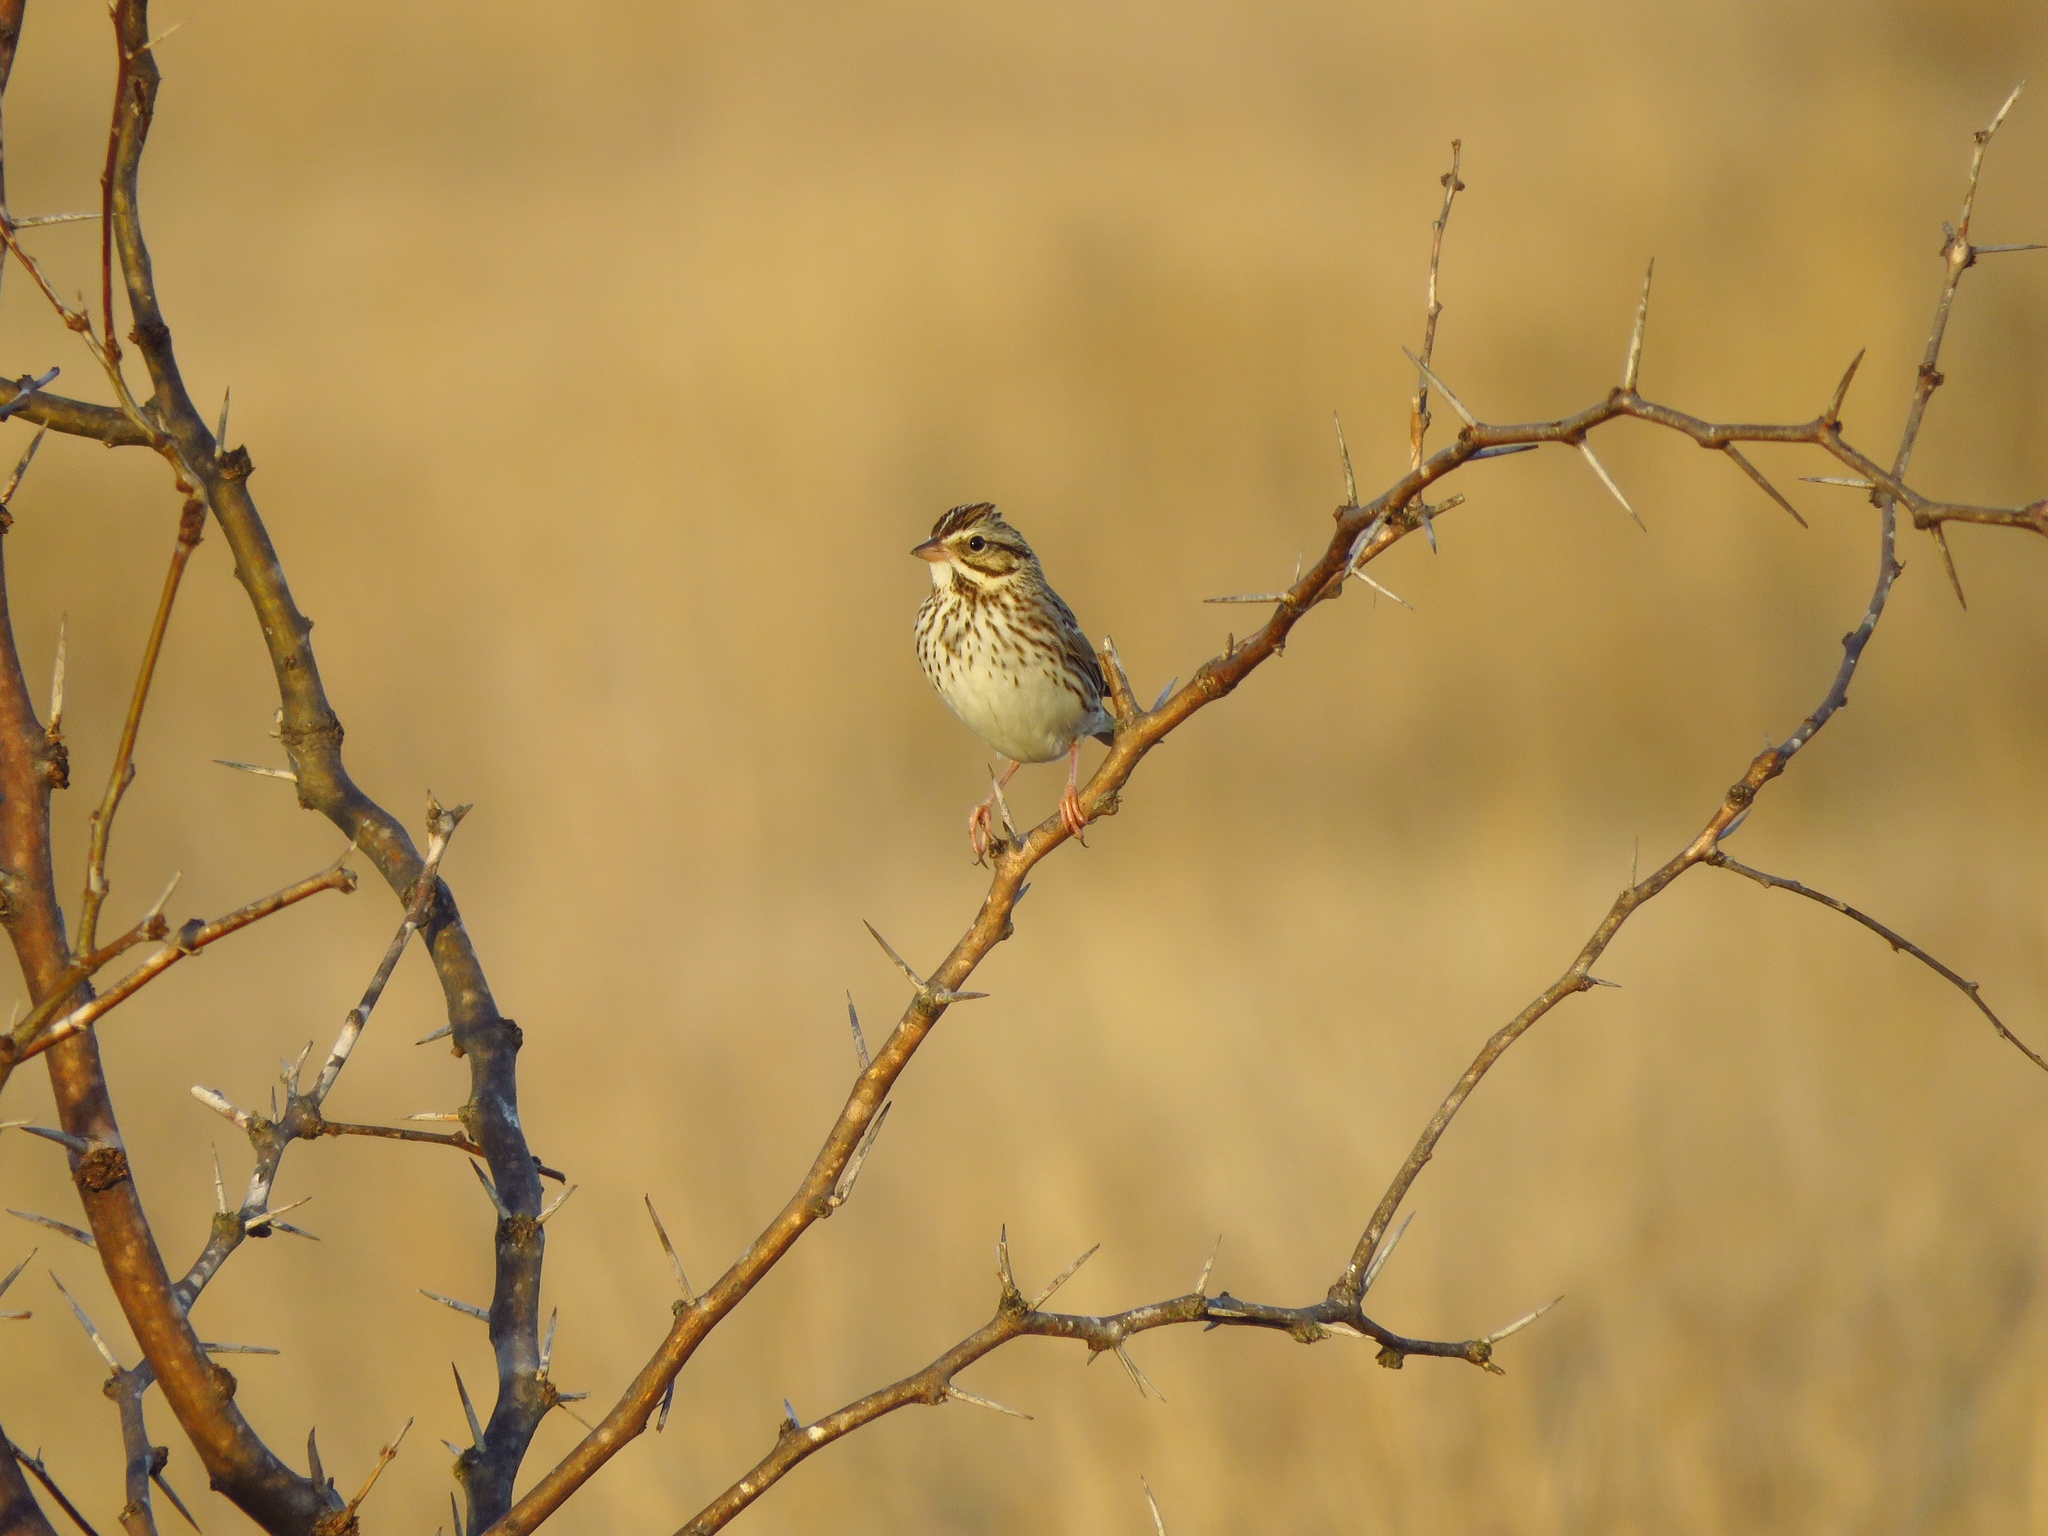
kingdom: Animalia
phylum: Chordata
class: Aves
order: Passeriformes
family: Passerellidae
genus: Passerculus
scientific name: Passerculus sandwichensis
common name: Savannah sparrow
